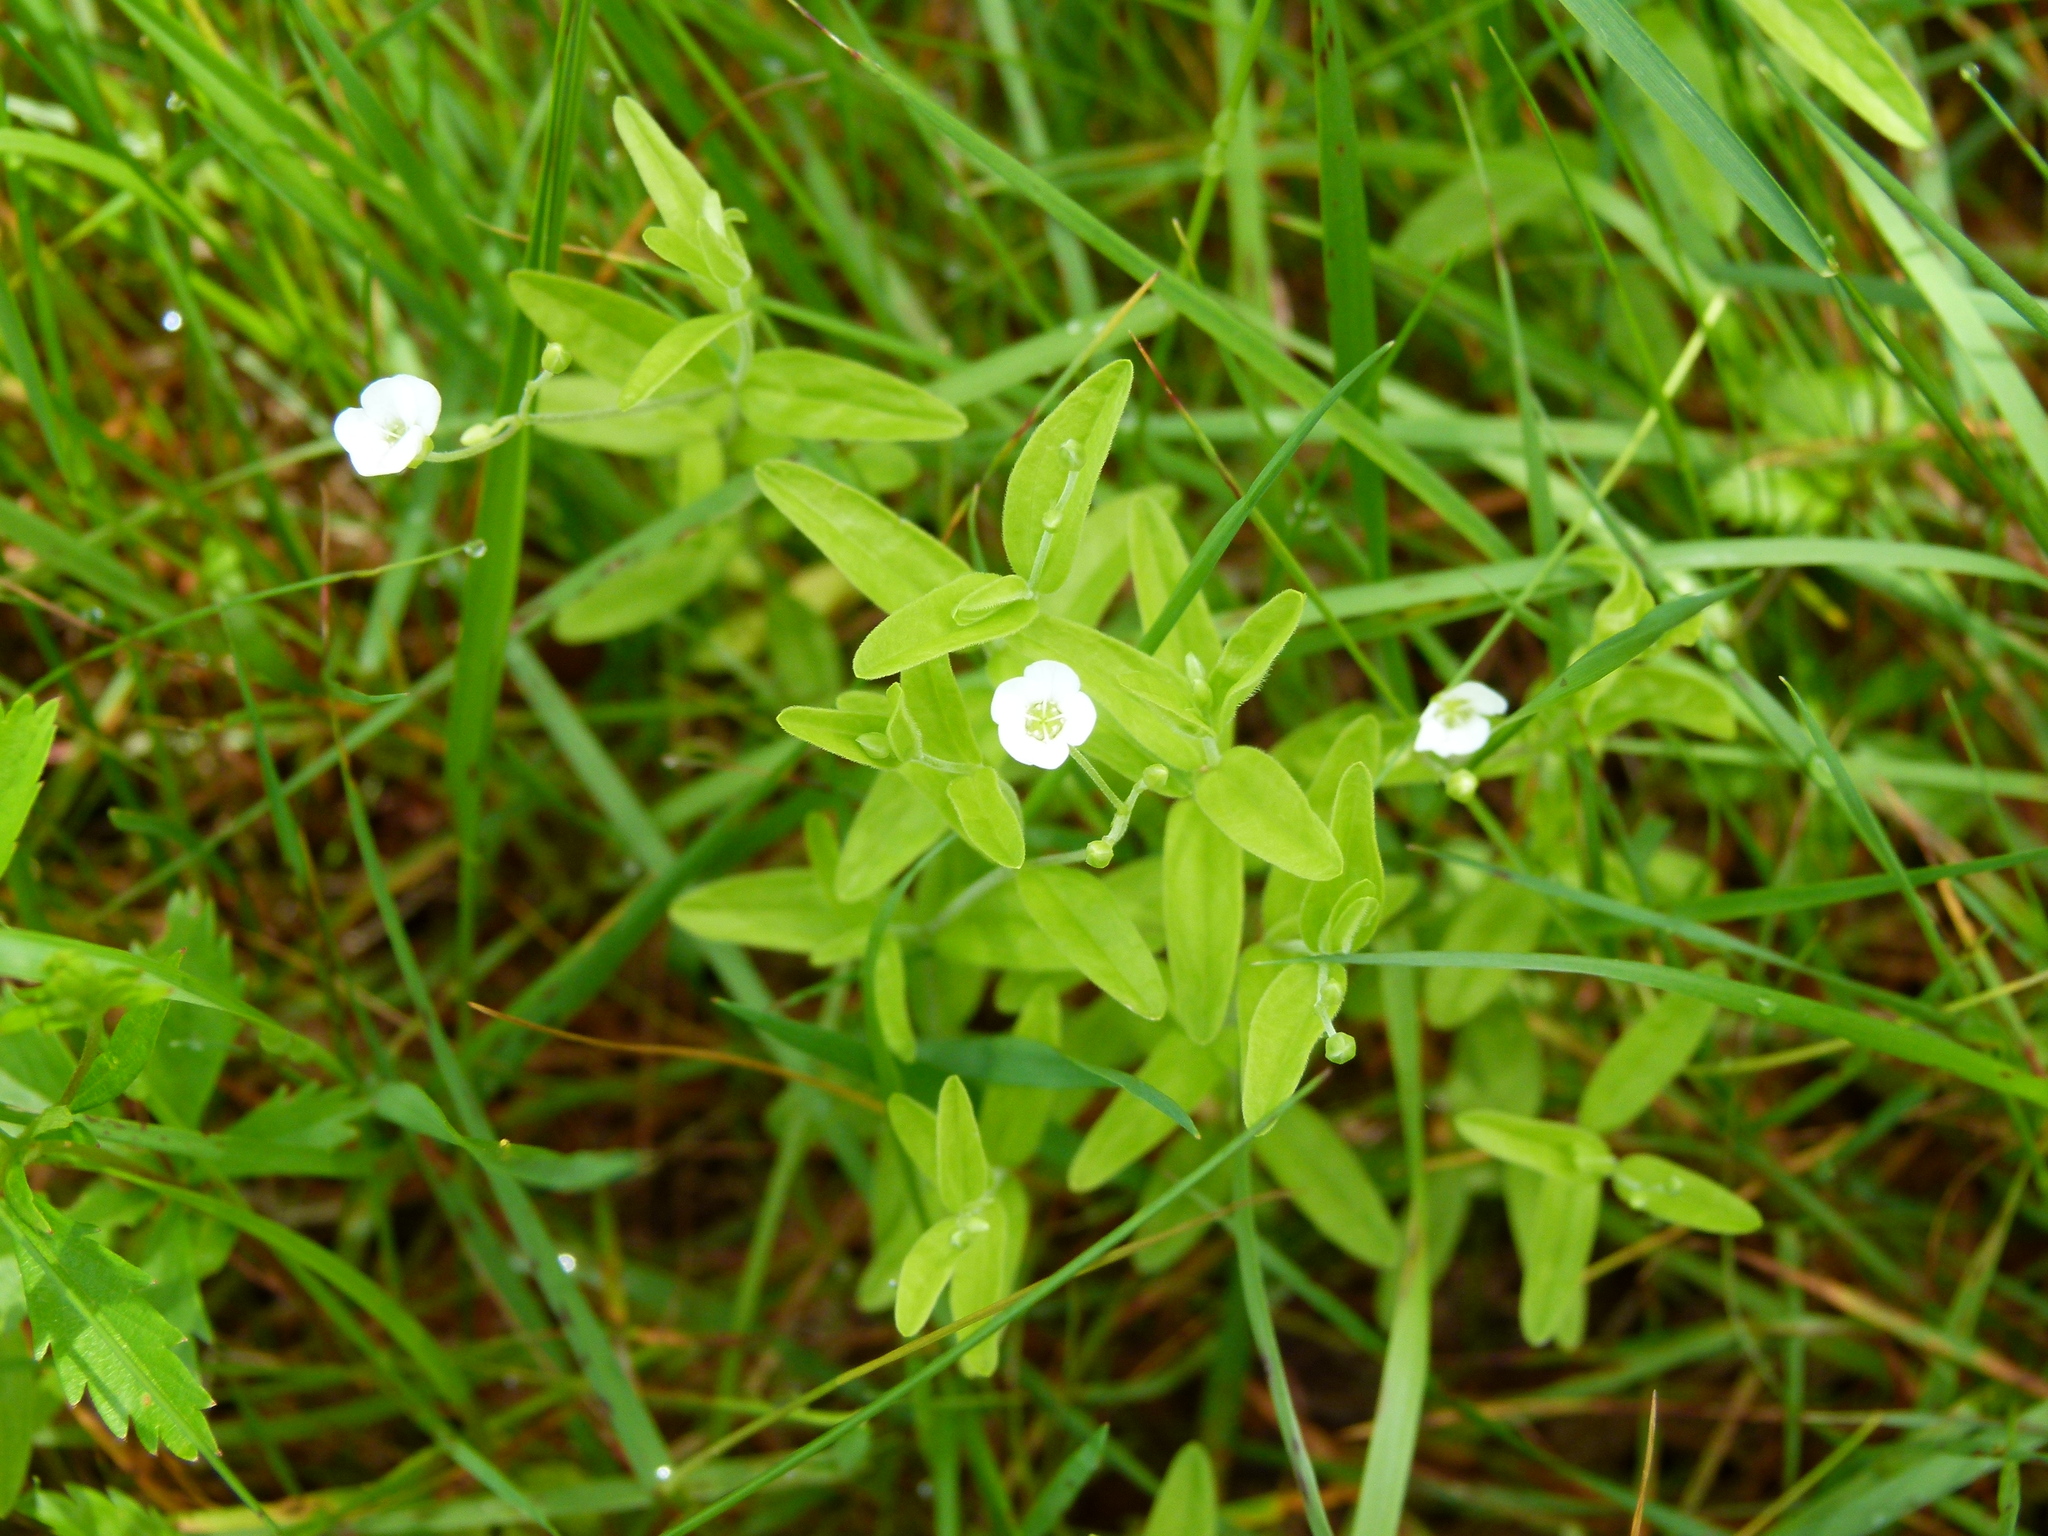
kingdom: Plantae
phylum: Tracheophyta
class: Magnoliopsida
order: Caryophyllales
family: Caryophyllaceae
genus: Moehringia
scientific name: Moehringia lateriflora
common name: Blunt-leaved sandwort
